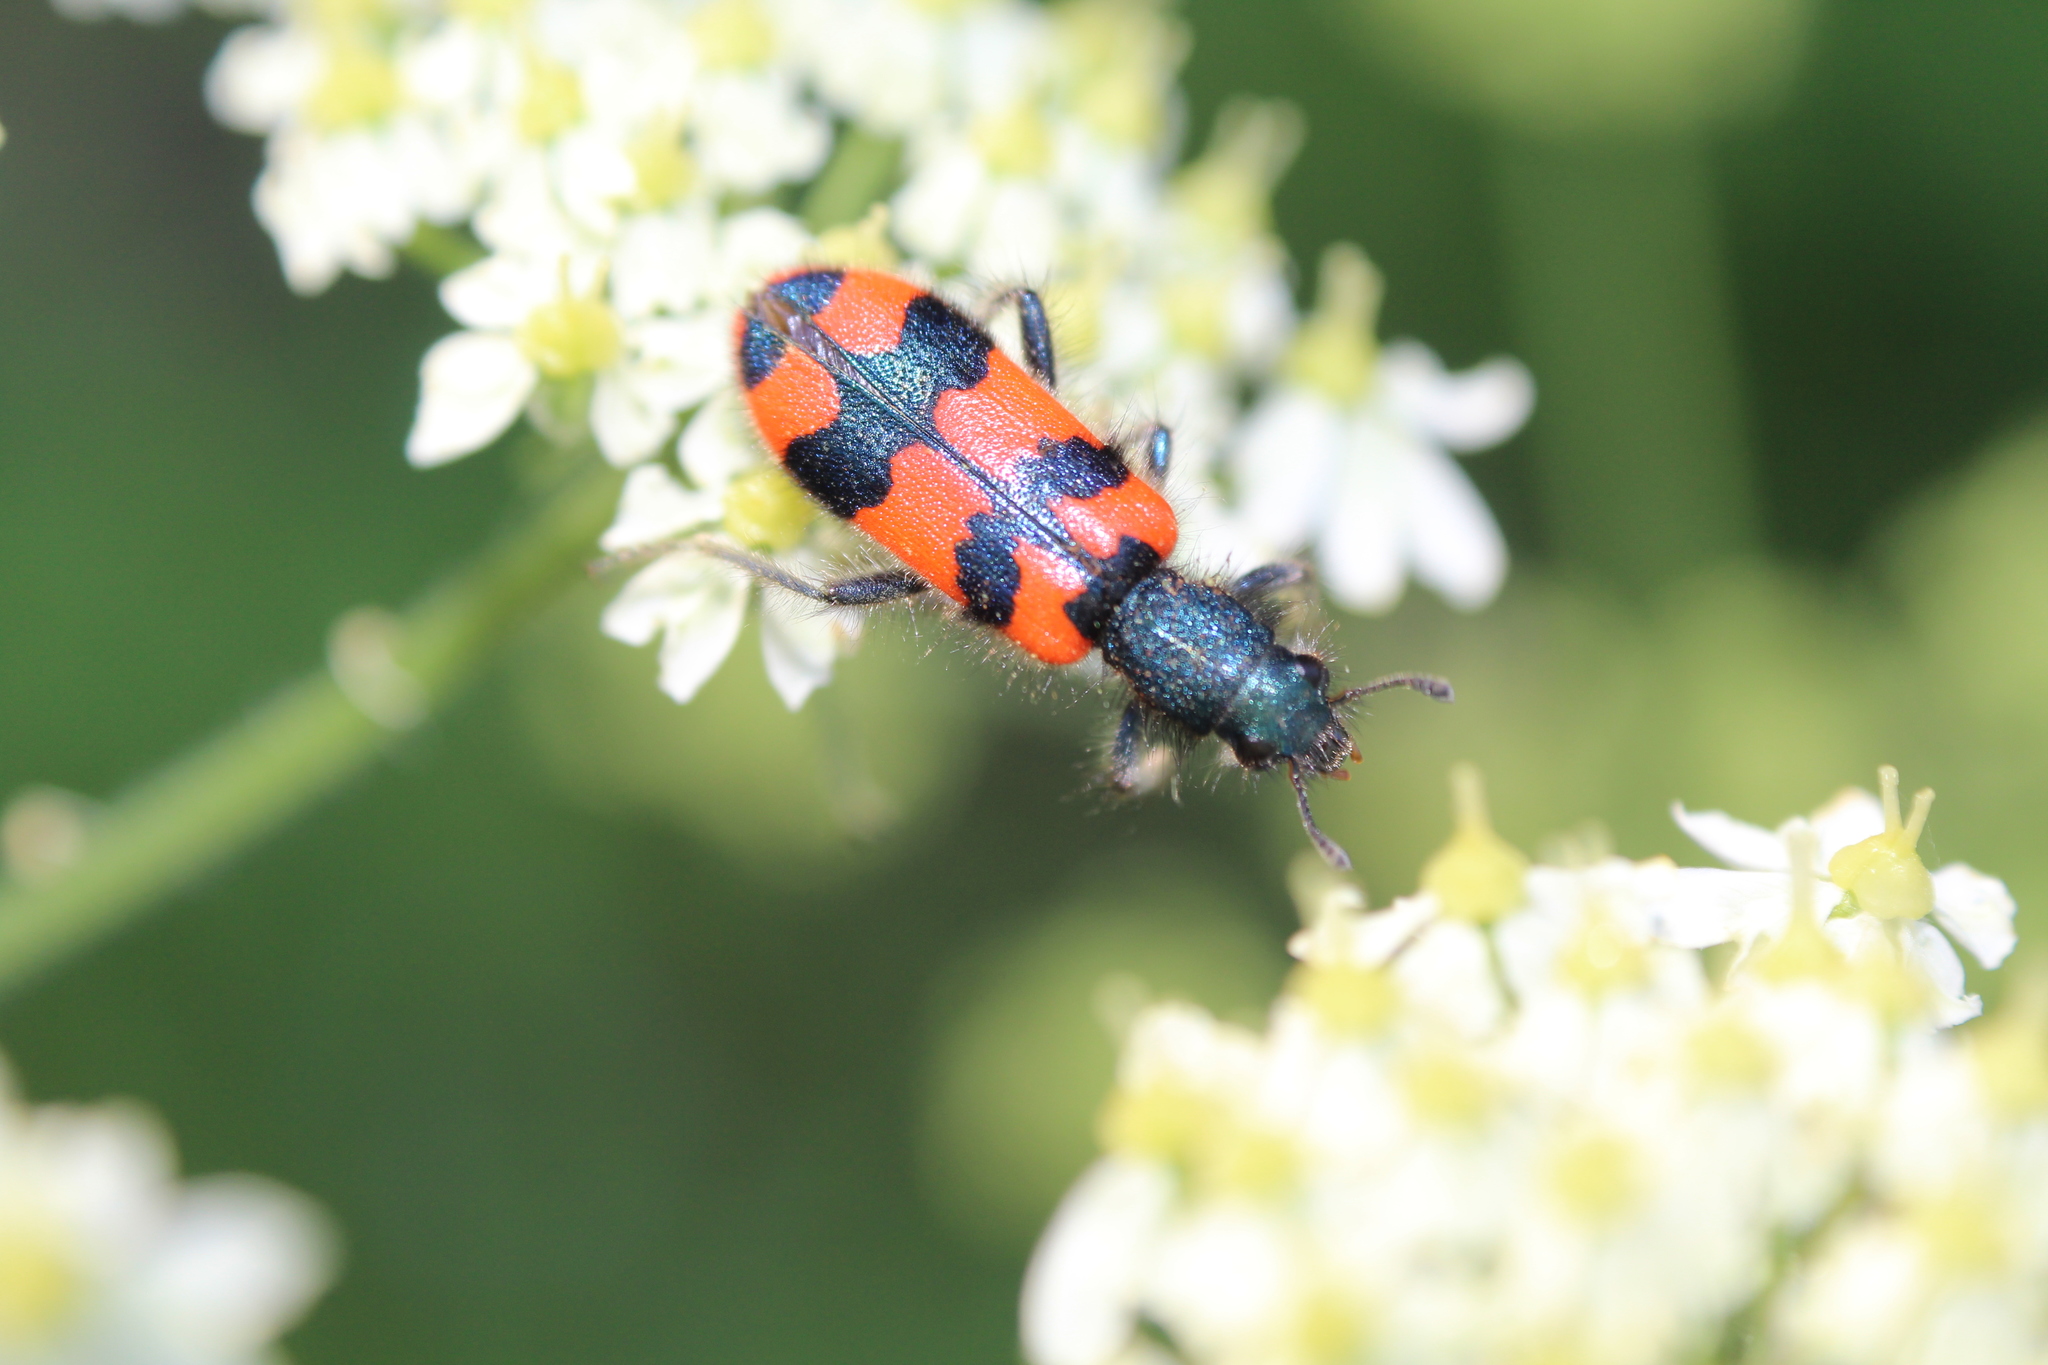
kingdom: Animalia
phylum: Arthropoda
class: Insecta
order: Coleoptera
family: Cleridae
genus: Trichodes
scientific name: Trichodes alvearius
